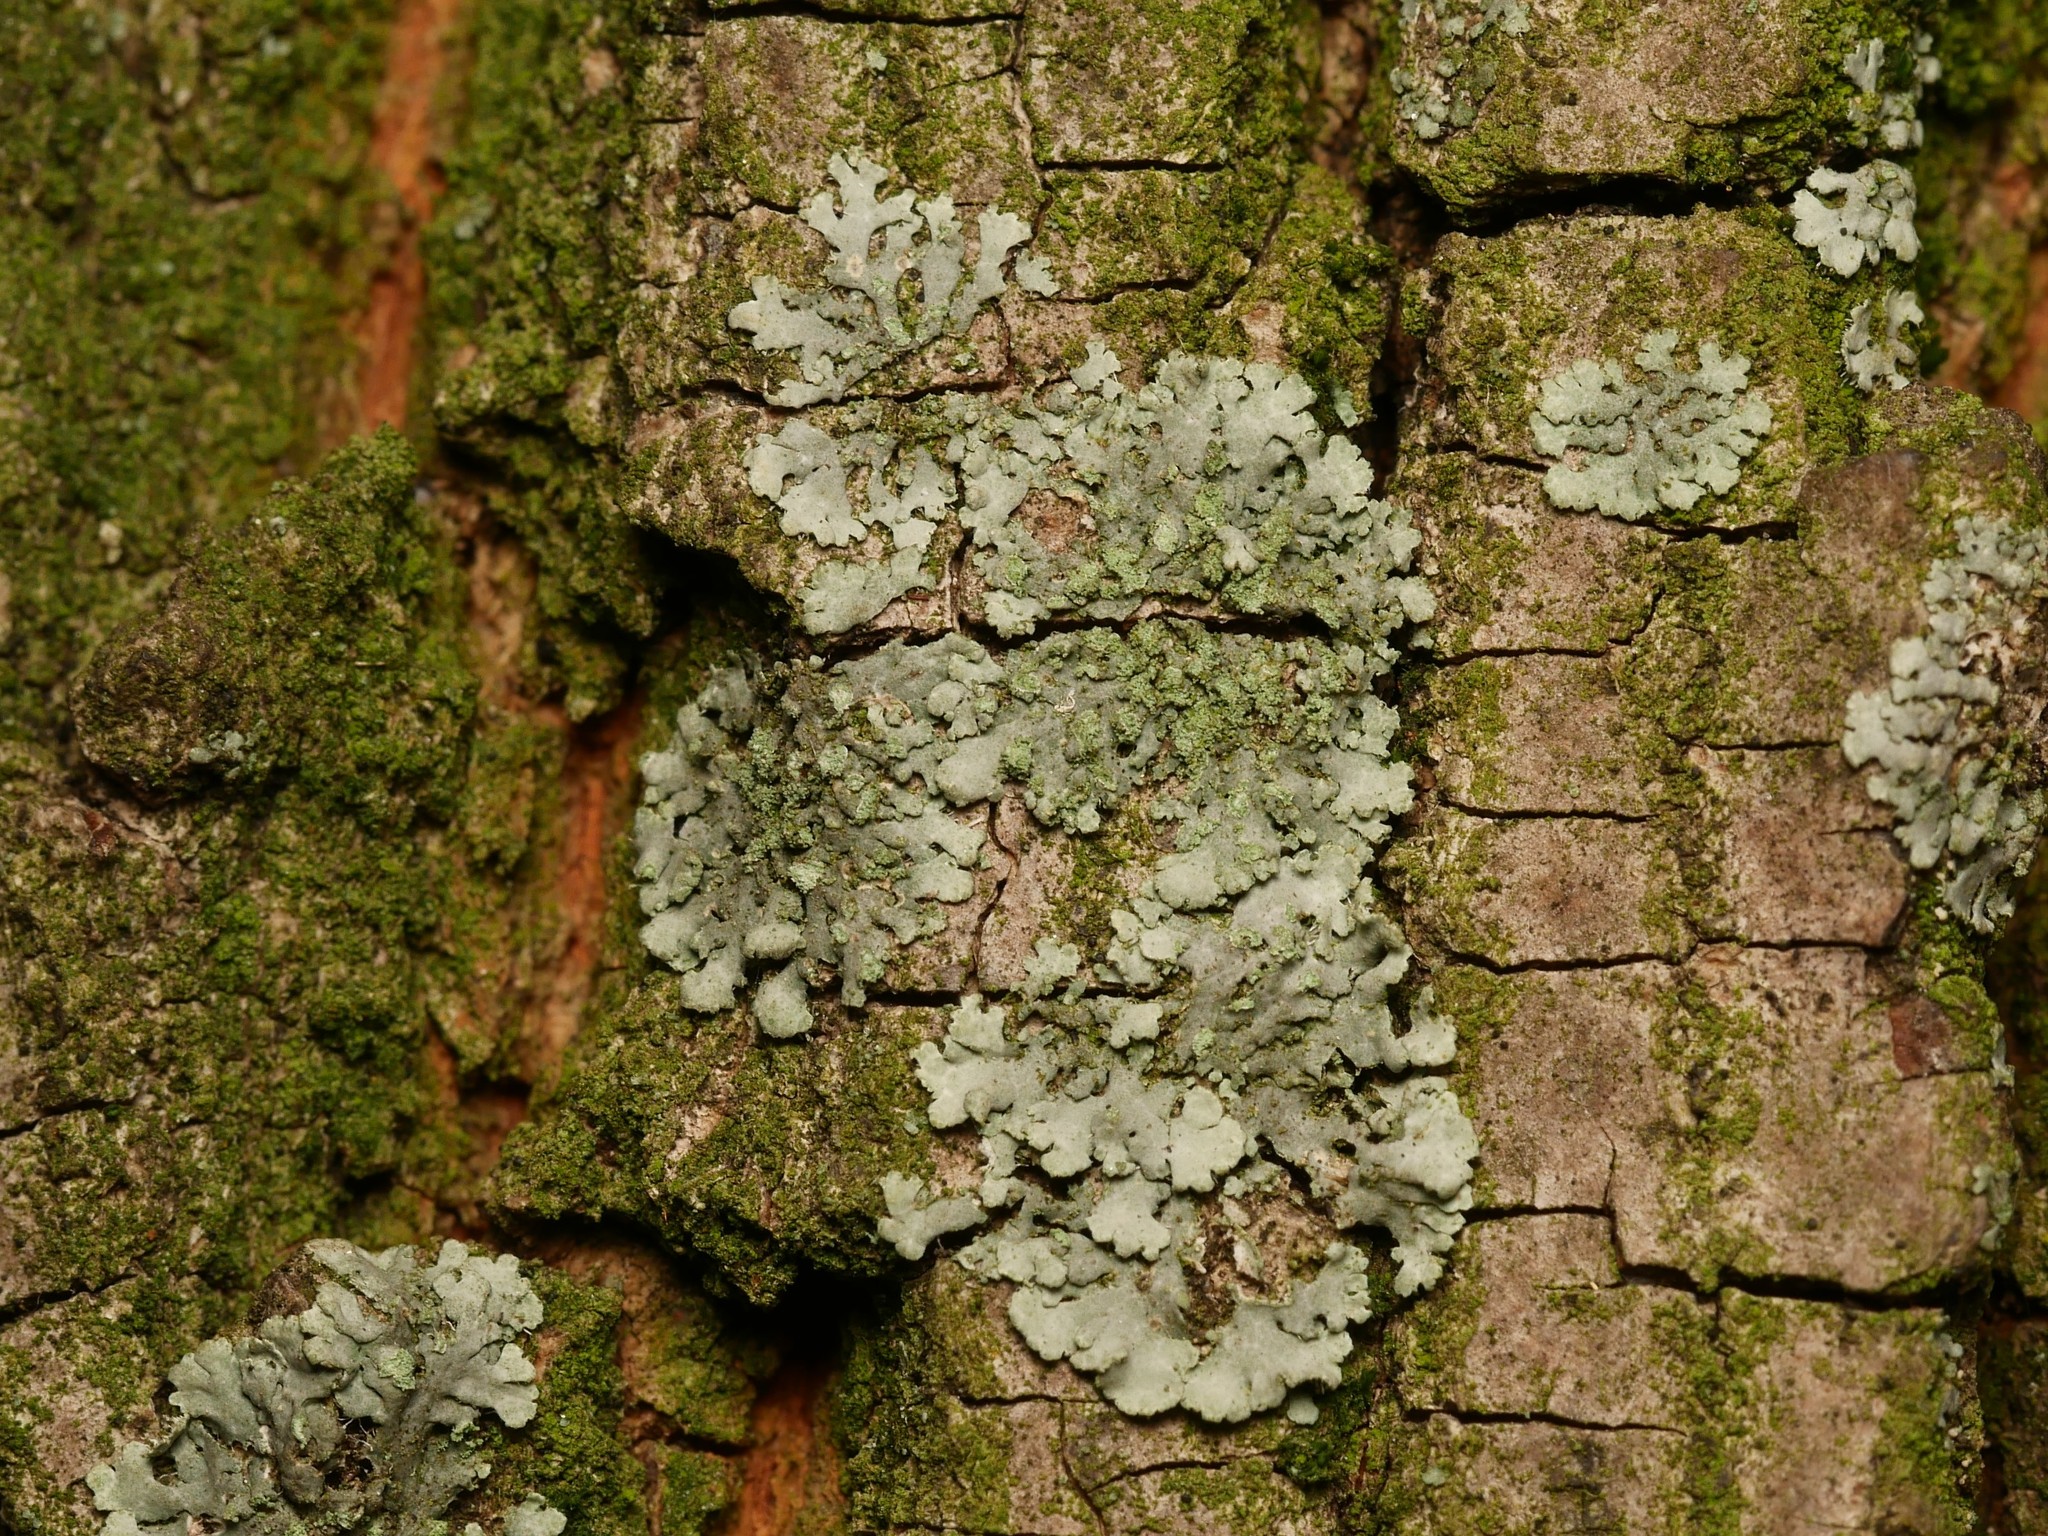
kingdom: Fungi
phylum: Ascomycota
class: Lecanoromycetes
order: Caliciales
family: Physciaceae
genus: Phaeophyscia
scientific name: Phaeophyscia orbicularis
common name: Mealy shadow lichen
